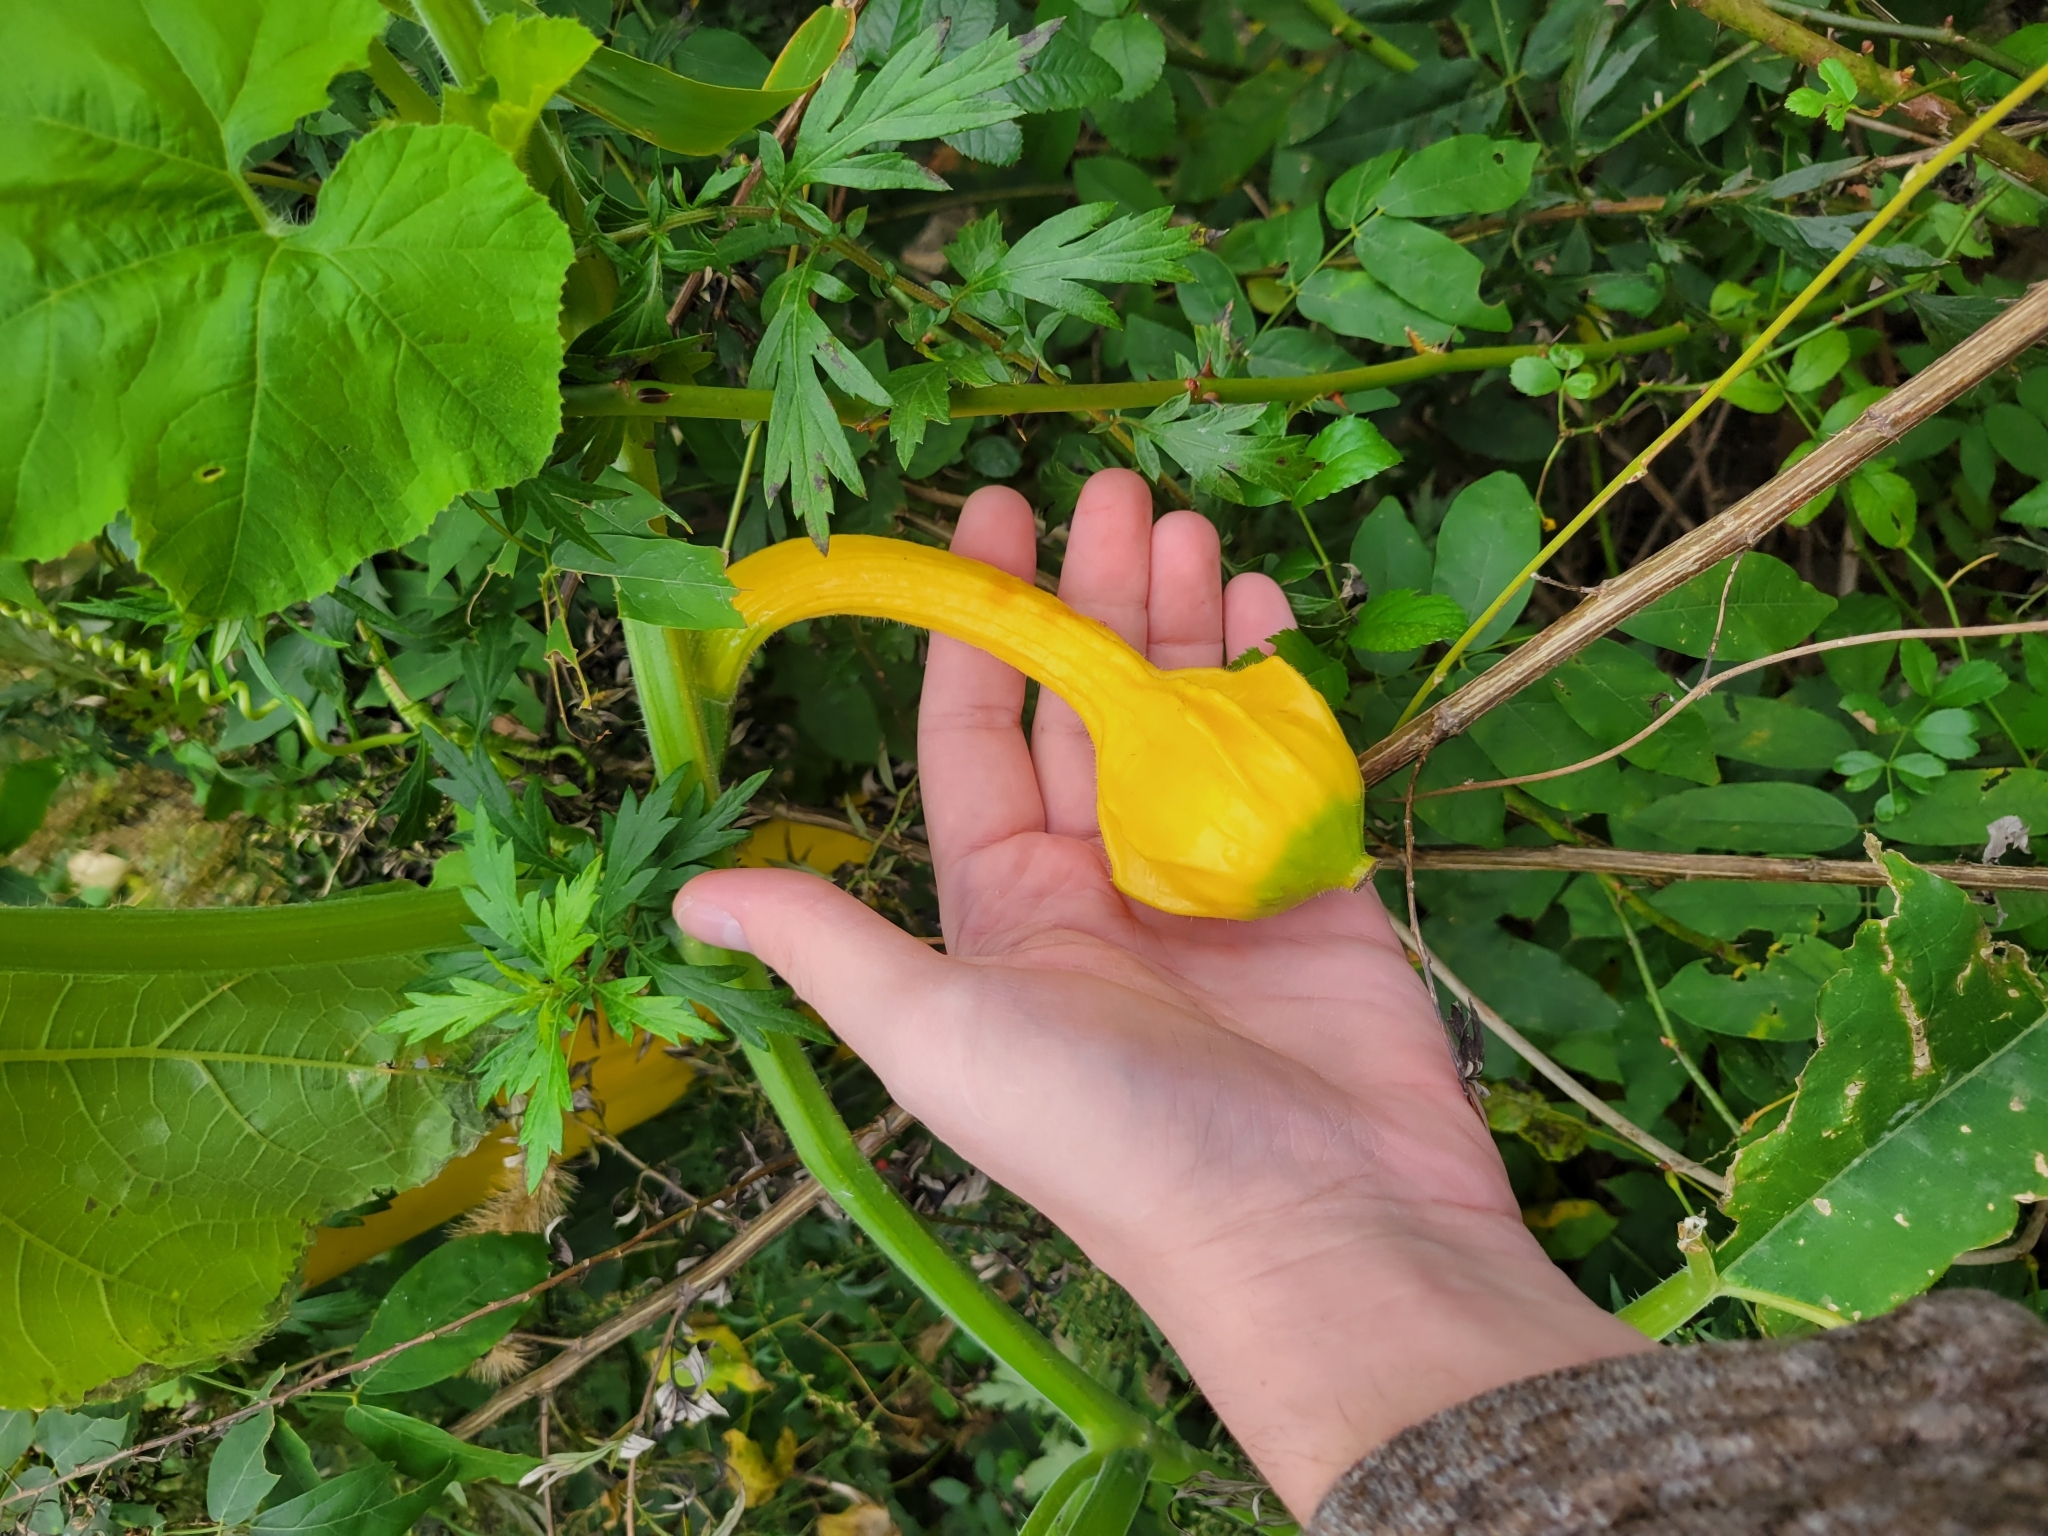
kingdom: Plantae
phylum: Tracheophyta
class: Magnoliopsida
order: Cucurbitales
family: Cucurbitaceae
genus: Cucurbita
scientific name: Cucurbita pepo
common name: Marrow
